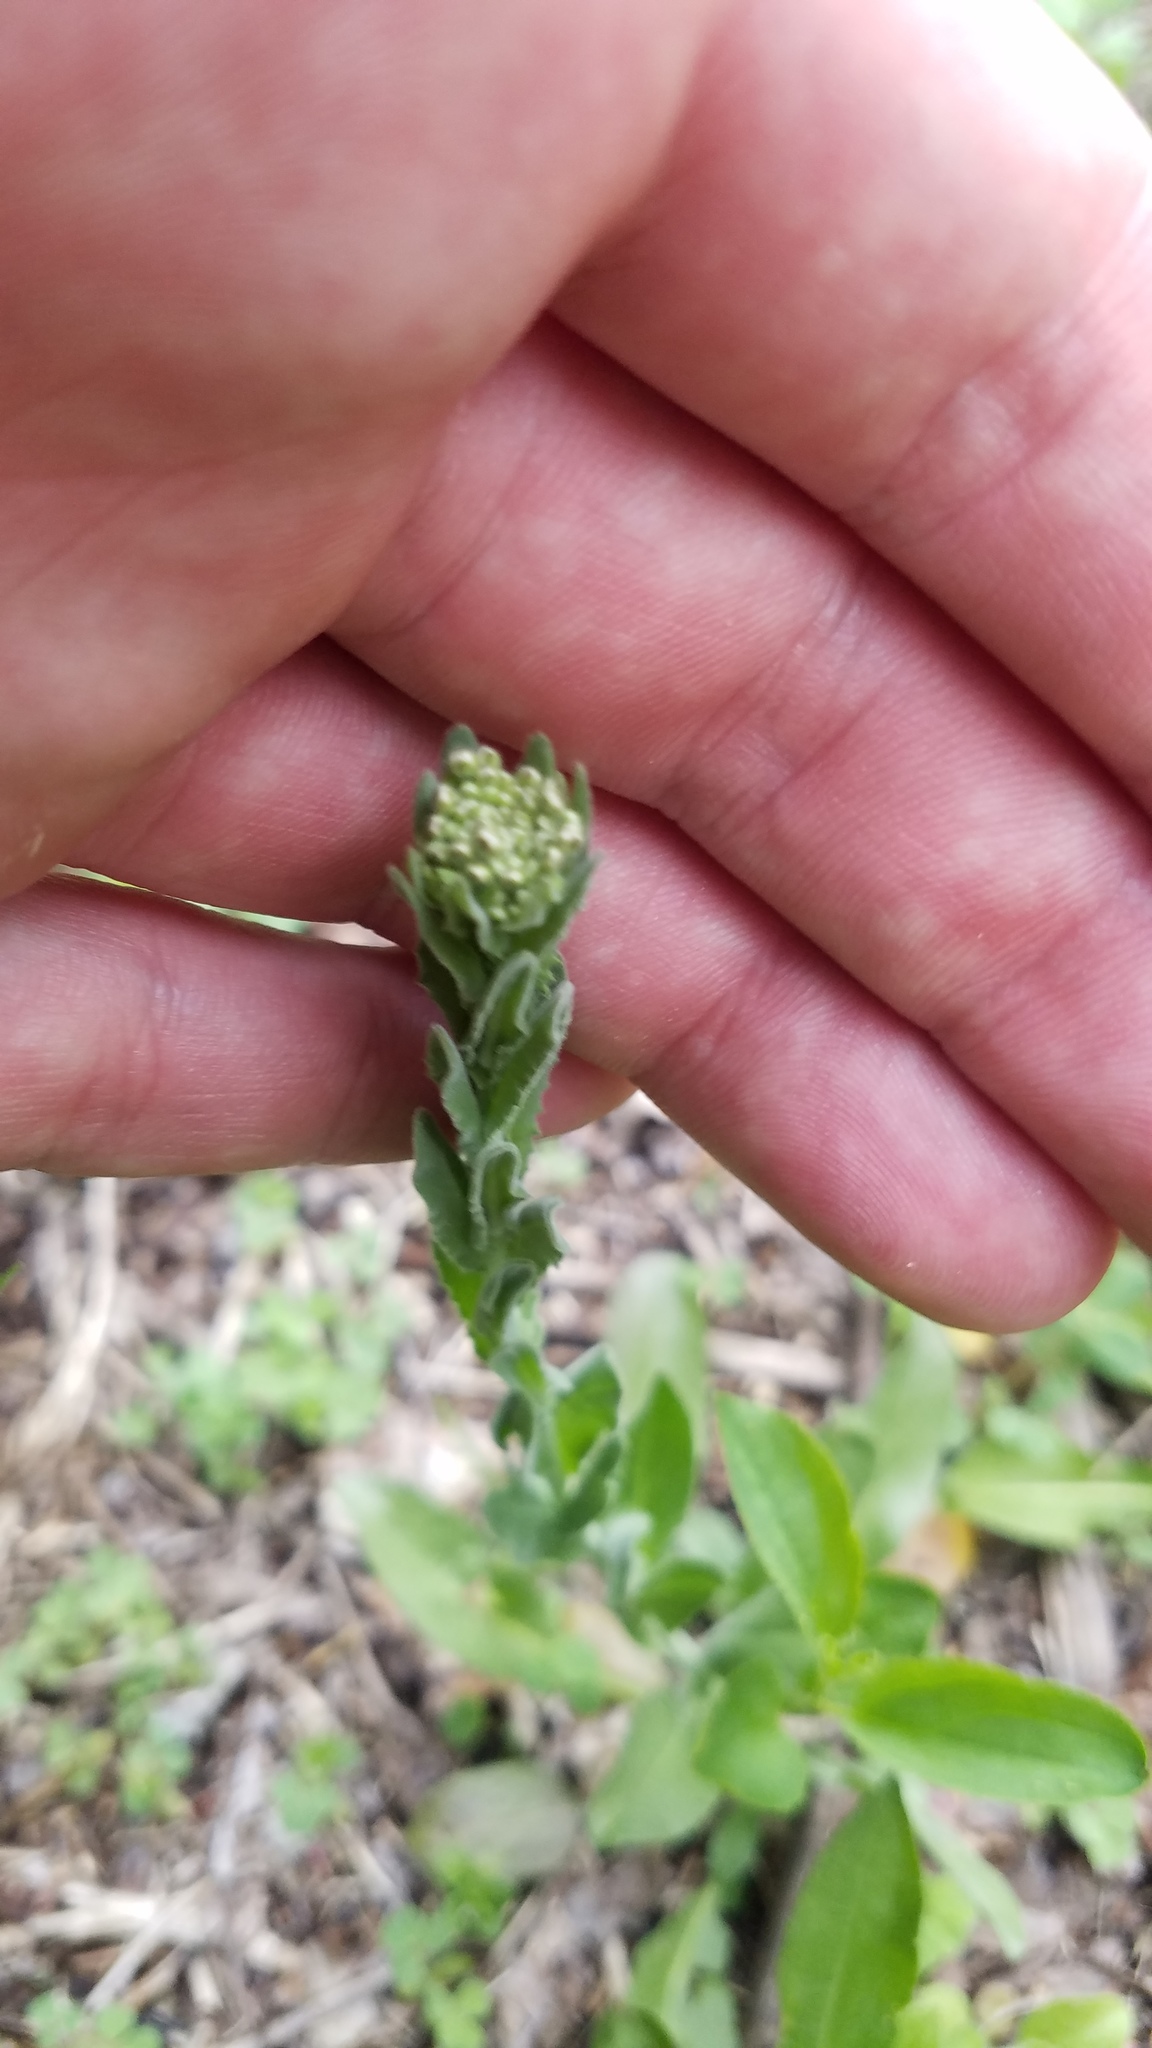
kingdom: Plantae
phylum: Tracheophyta
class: Magnoliopsida
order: Brassicales
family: Brassicaceae
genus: Lepidium
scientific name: Lepidium campestre
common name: Field pepperwort
